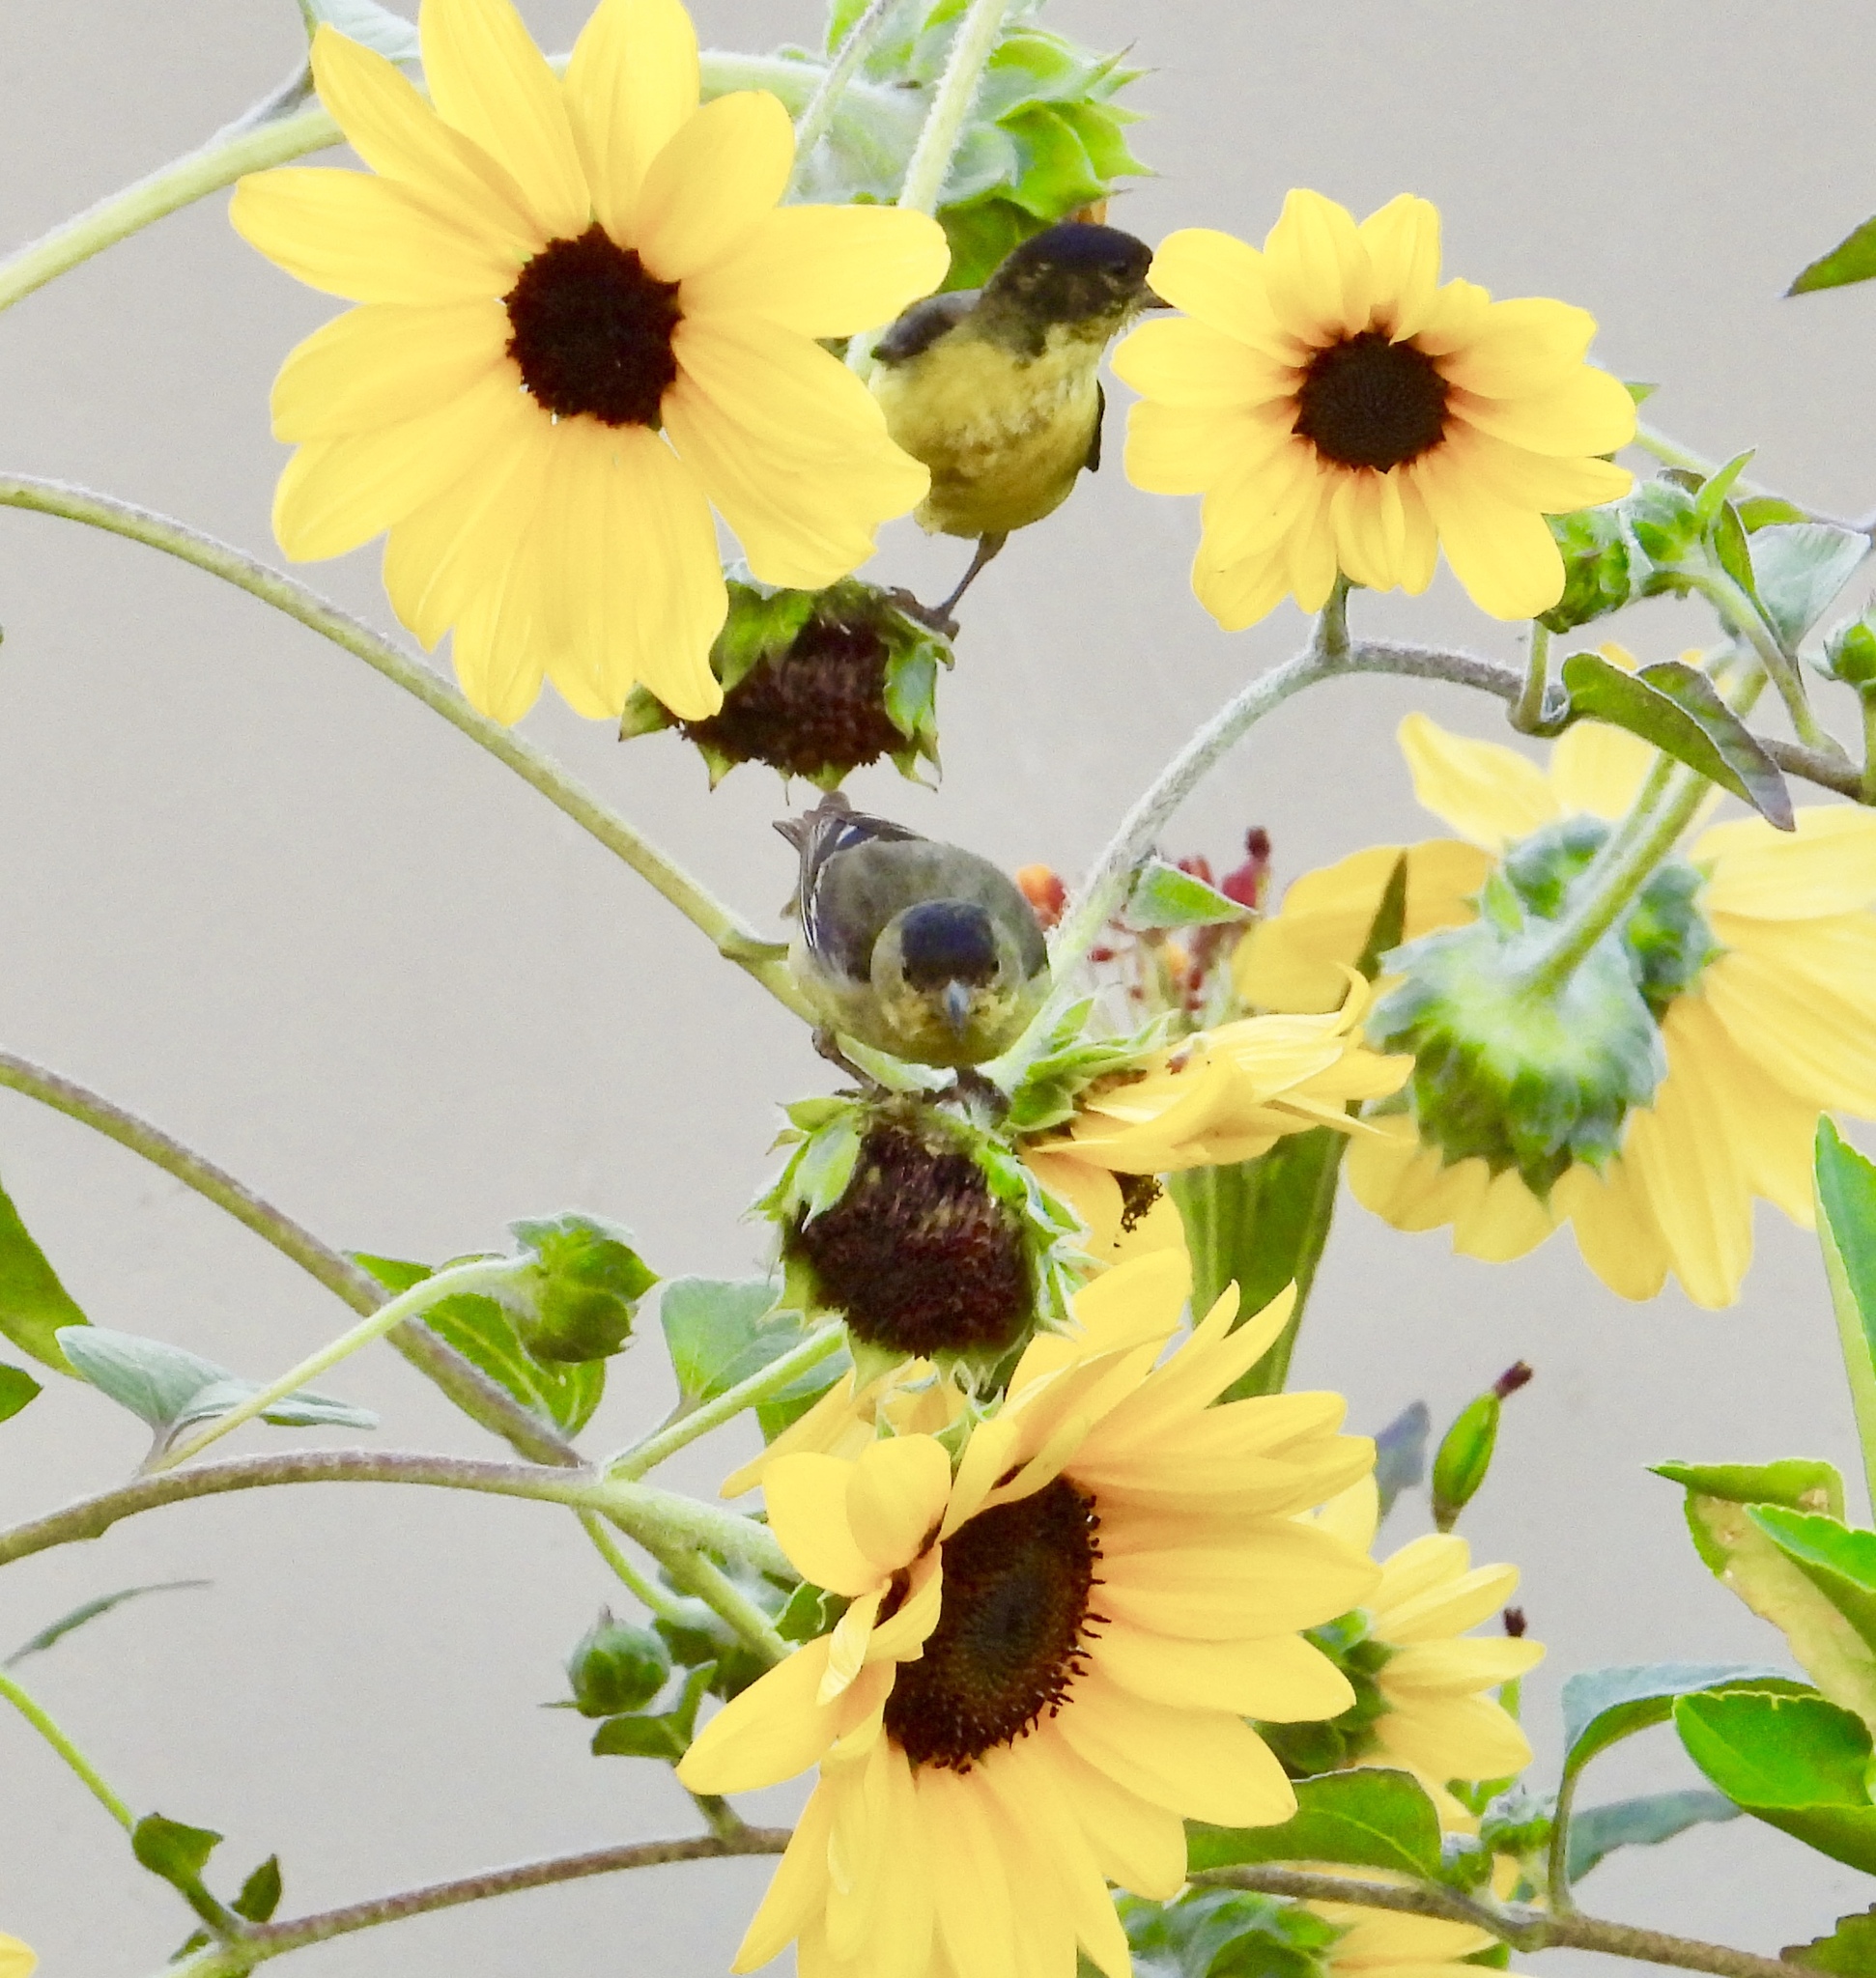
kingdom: Animalia
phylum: Chordata
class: Aves
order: Passeriformes
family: Fringillidae
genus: Spinus
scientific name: Spinus psaltria
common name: Lesser goldfinch
